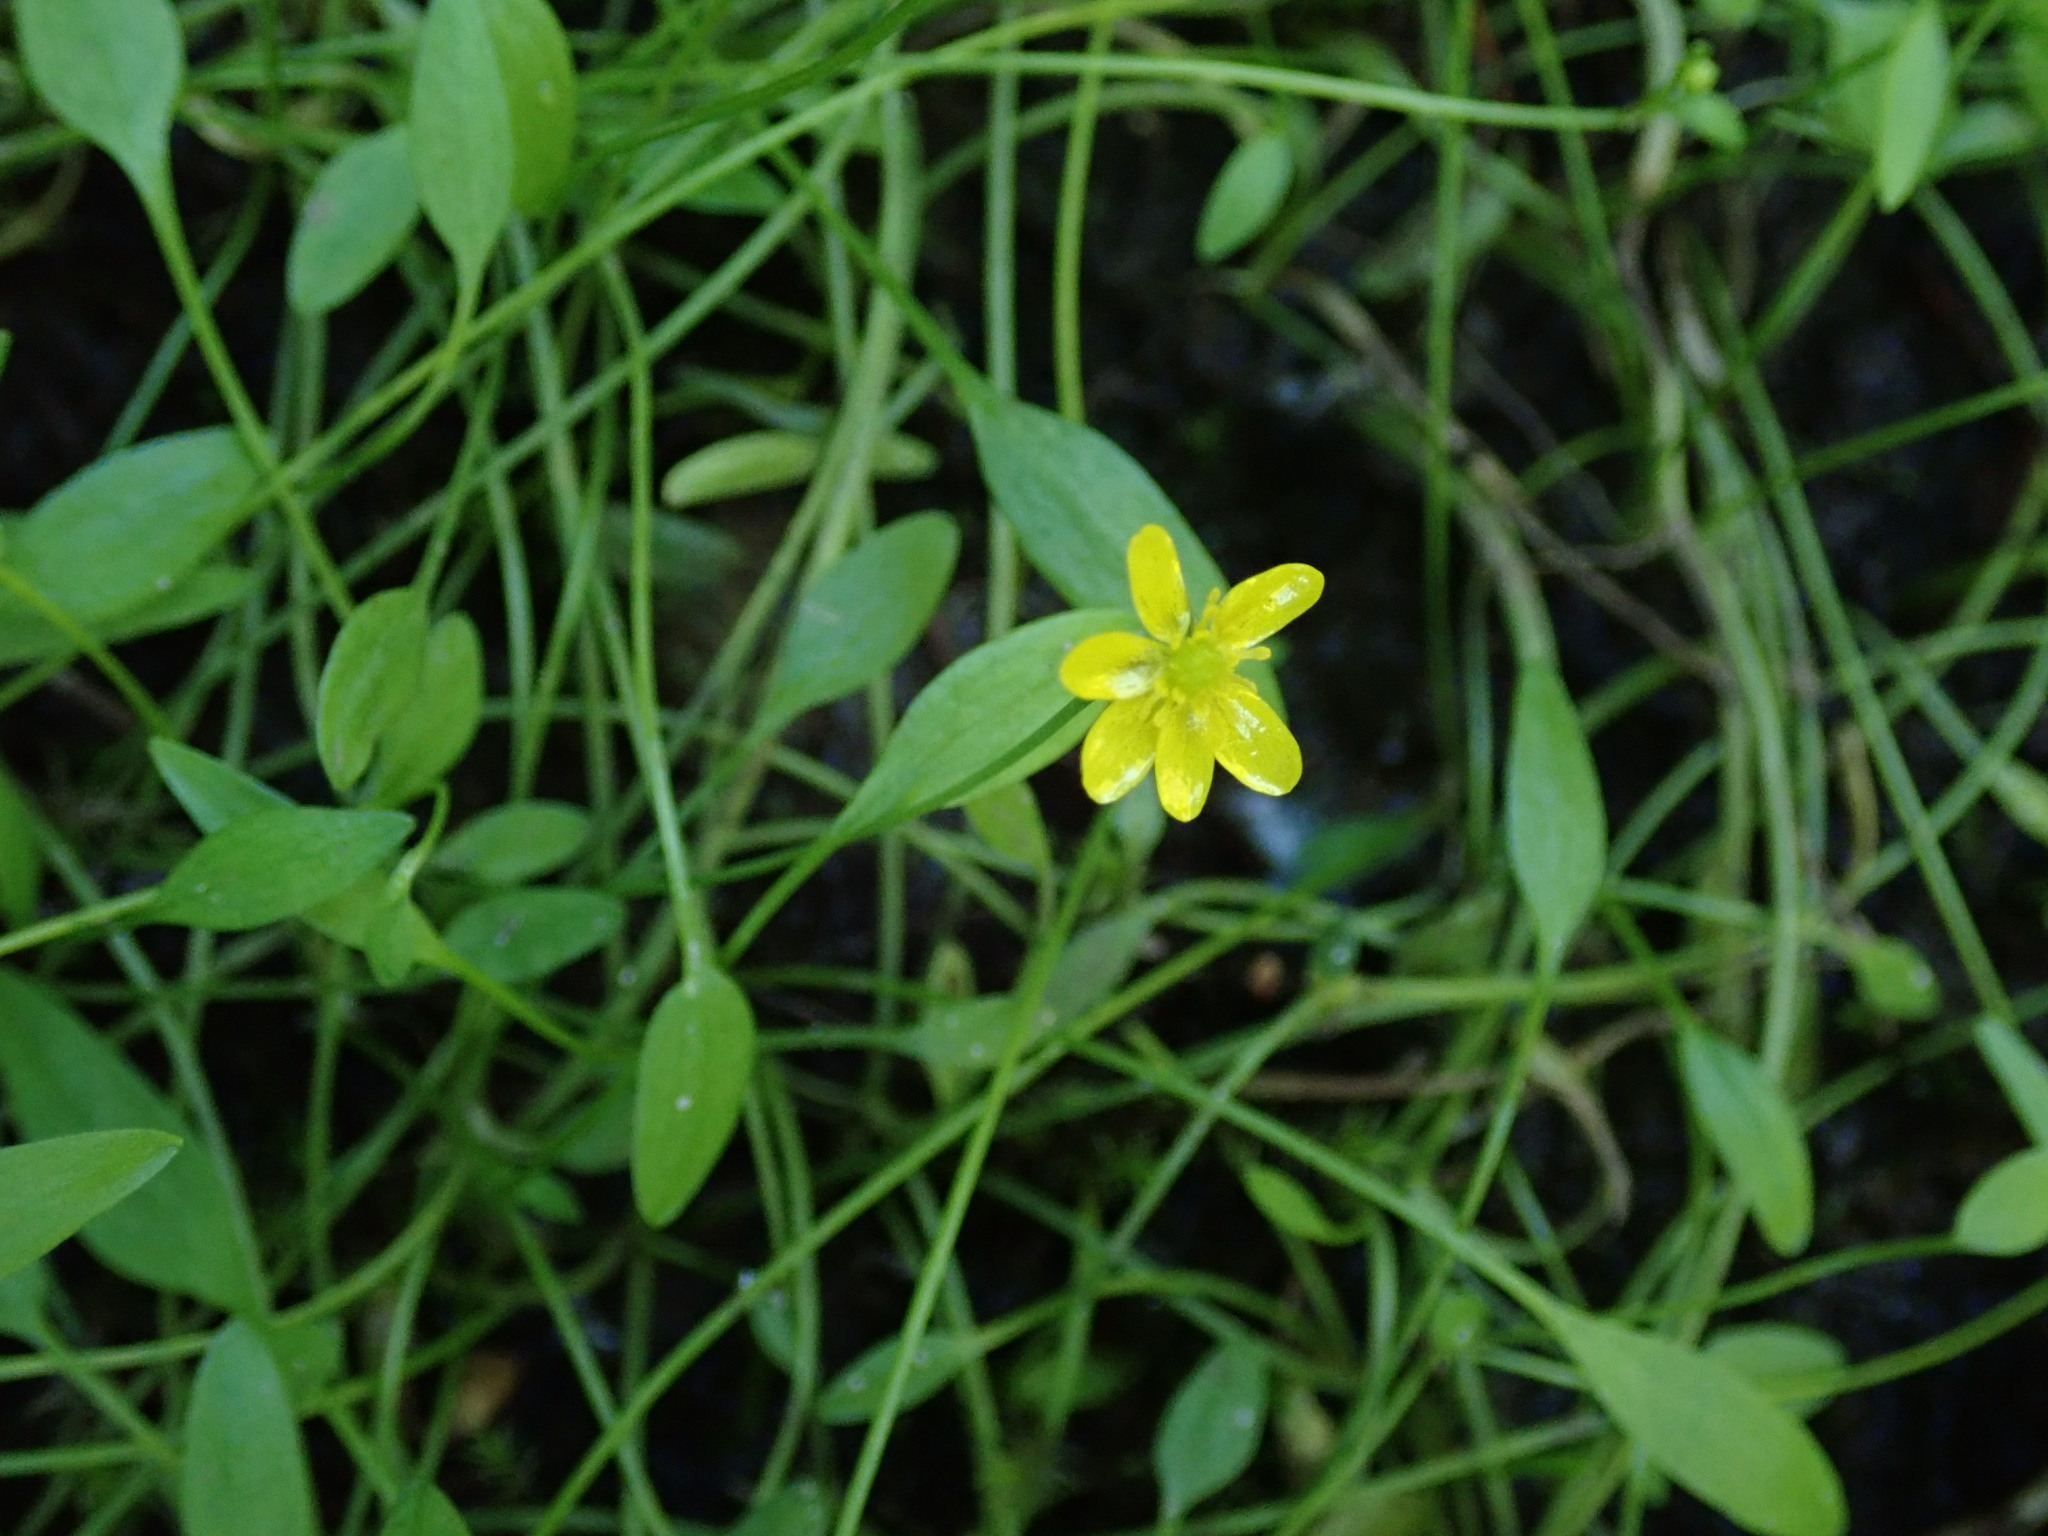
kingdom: Plantae
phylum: Tracheophyta
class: Magnoliopsida
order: Ranunculales
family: Ranunculaceae
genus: Ranunculus
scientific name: Ranunculus flammula
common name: Lesser spearwort
